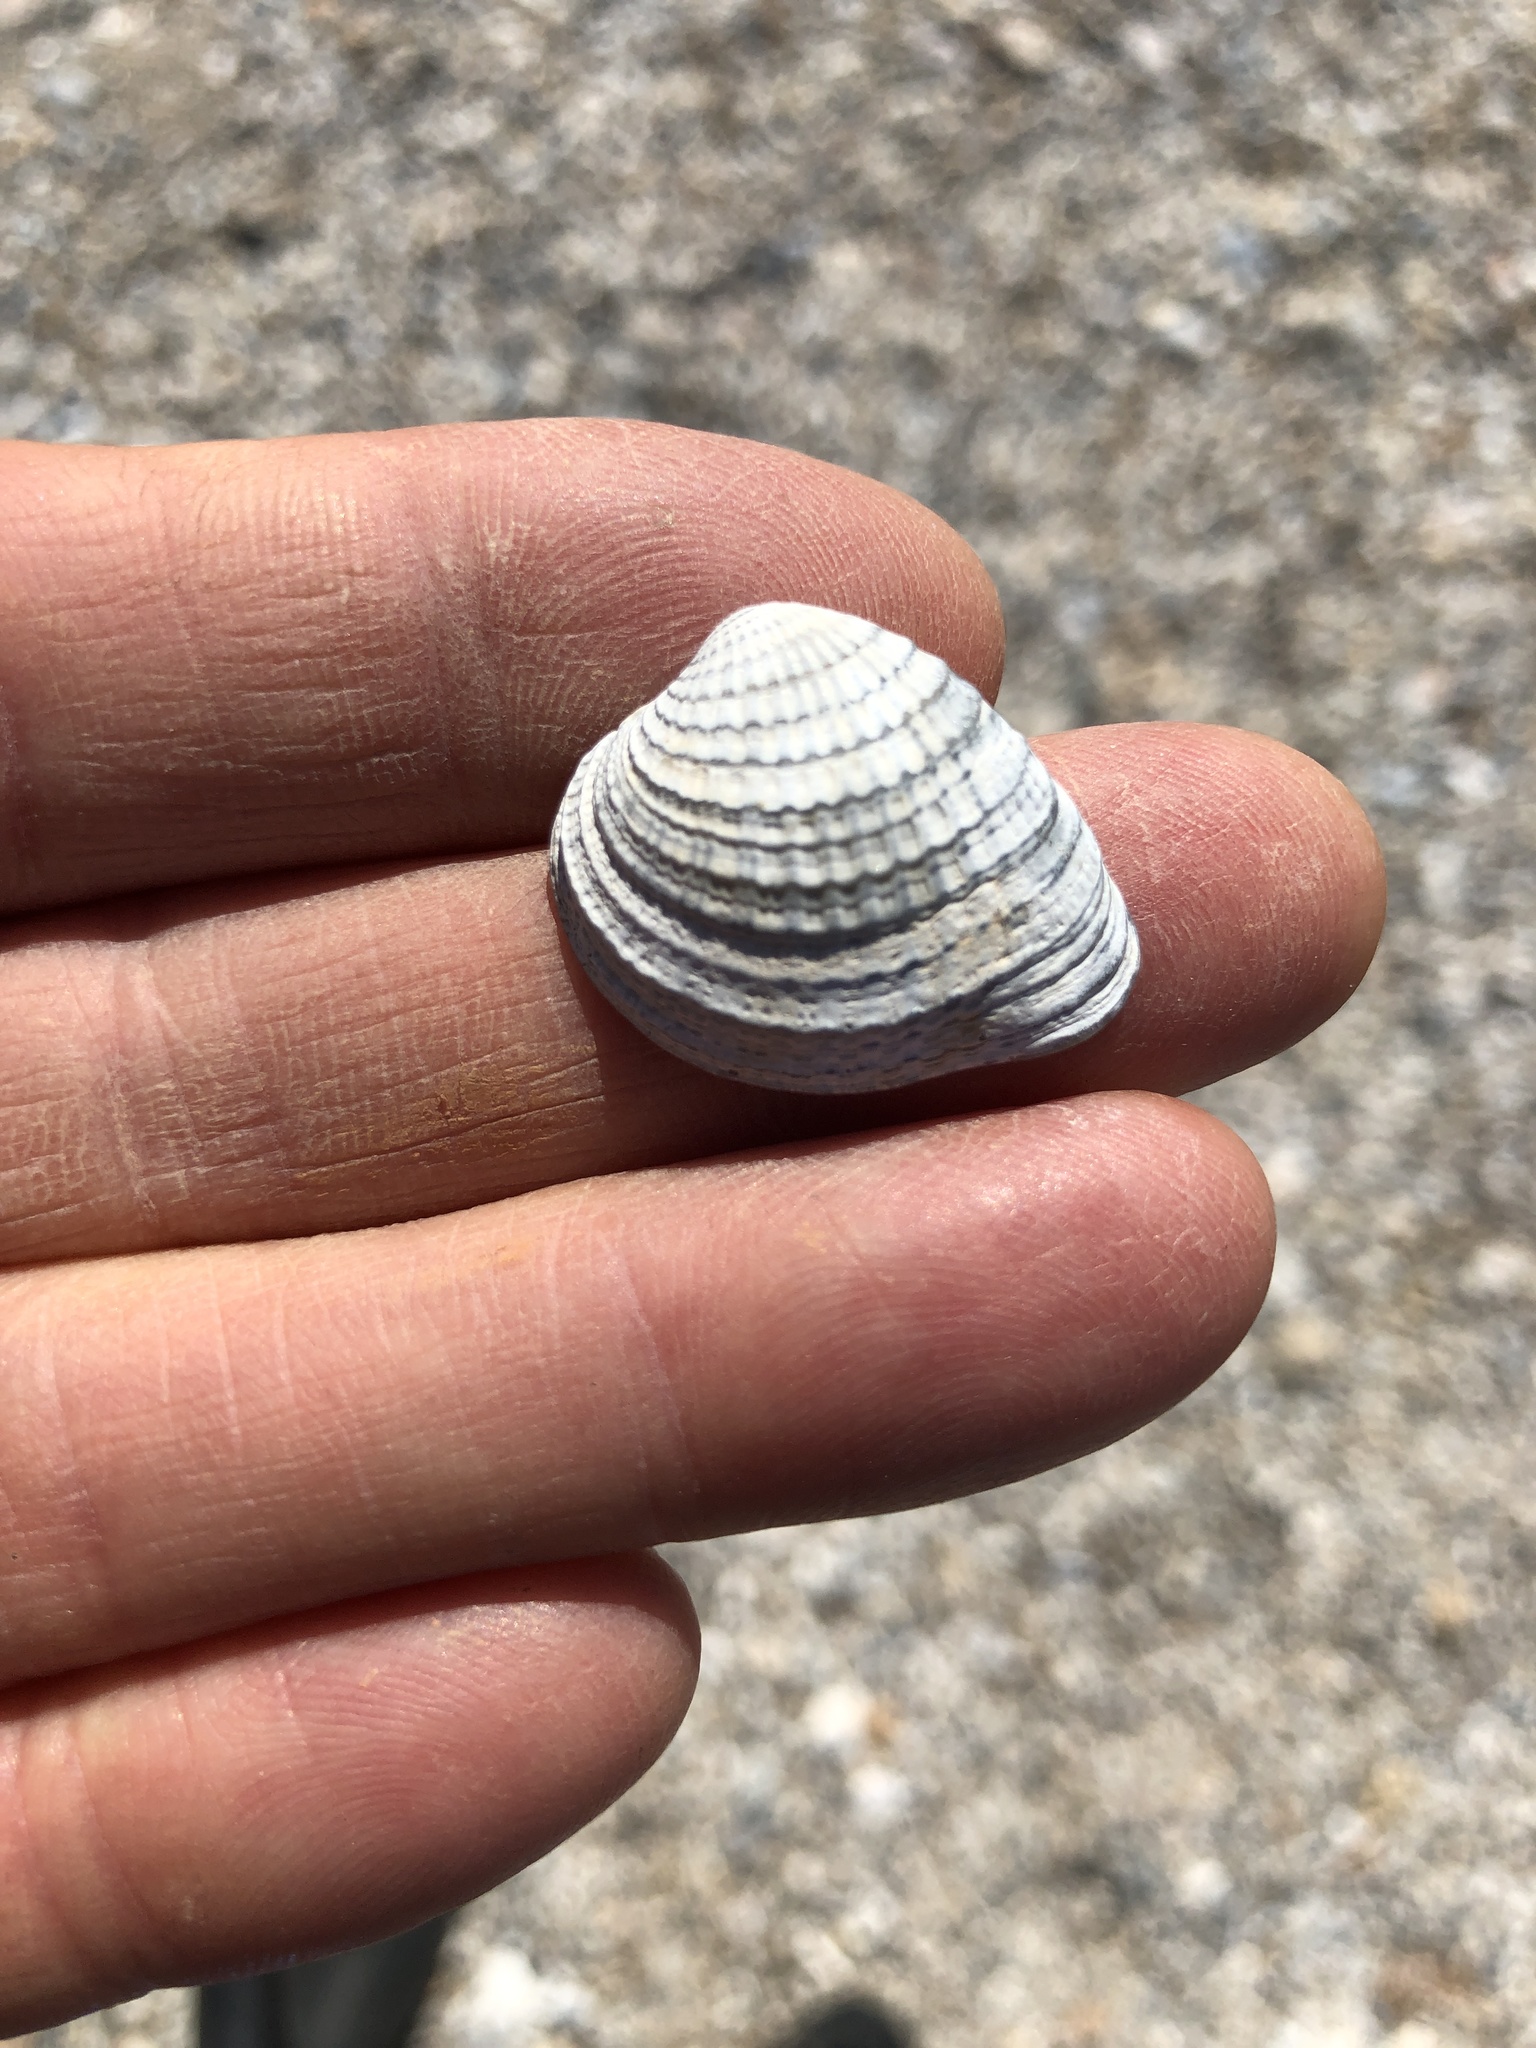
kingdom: Animalia
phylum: Mollusca
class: Bivalvia
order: Venerida
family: Veneridae
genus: Chione
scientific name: Chione elevata
